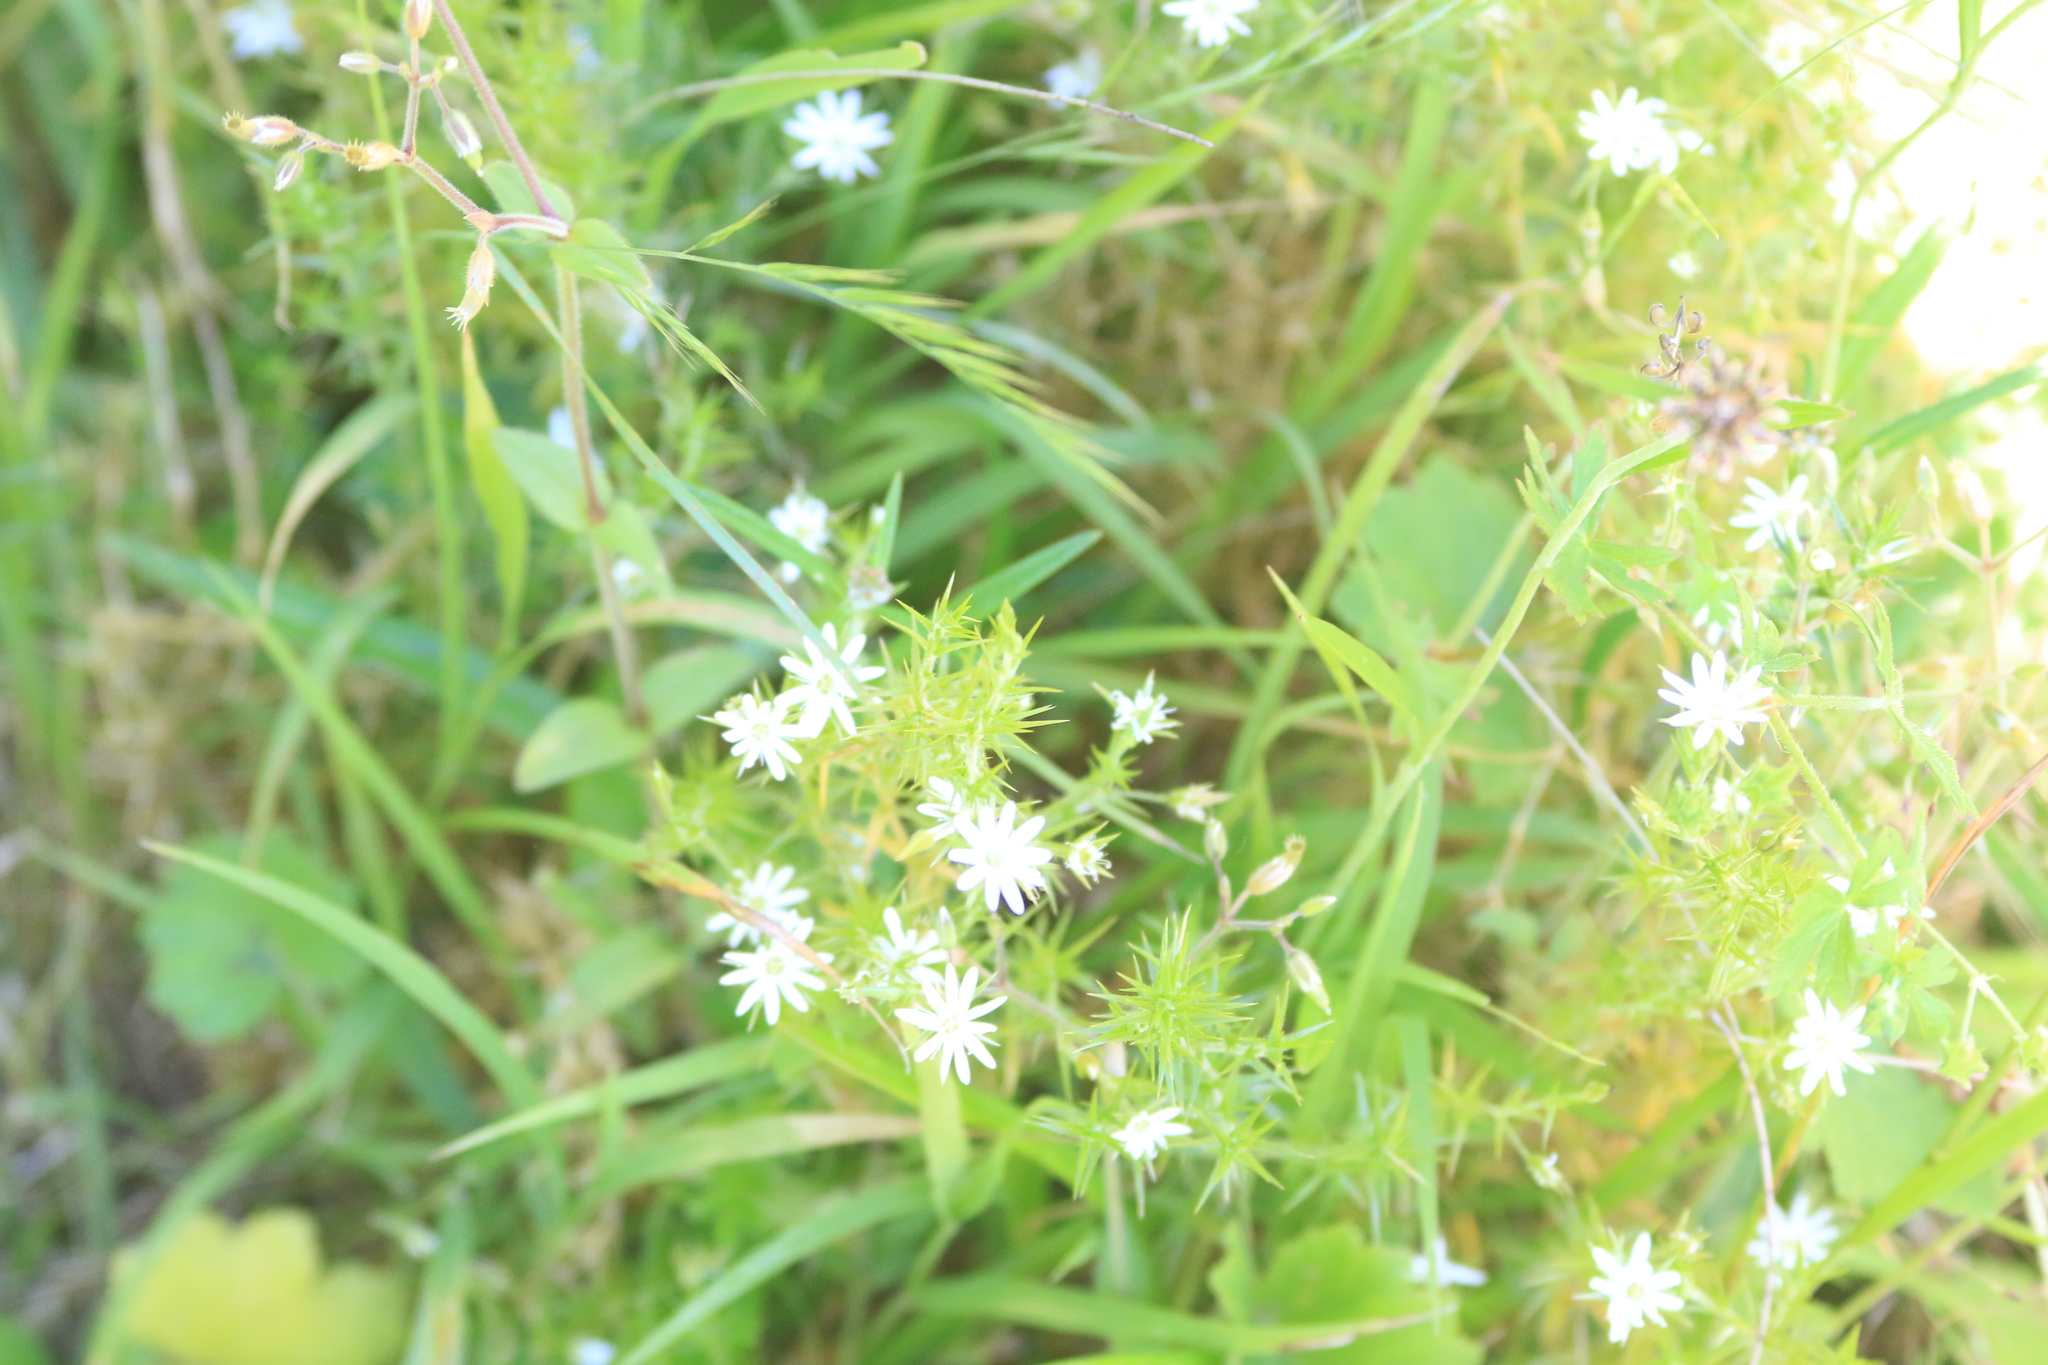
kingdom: Plantae
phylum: Tracheophyta
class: Magnoliopsida
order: Caryophyllales
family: Caryophyllaceae
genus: Stellaria
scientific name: Stellaria pungens
